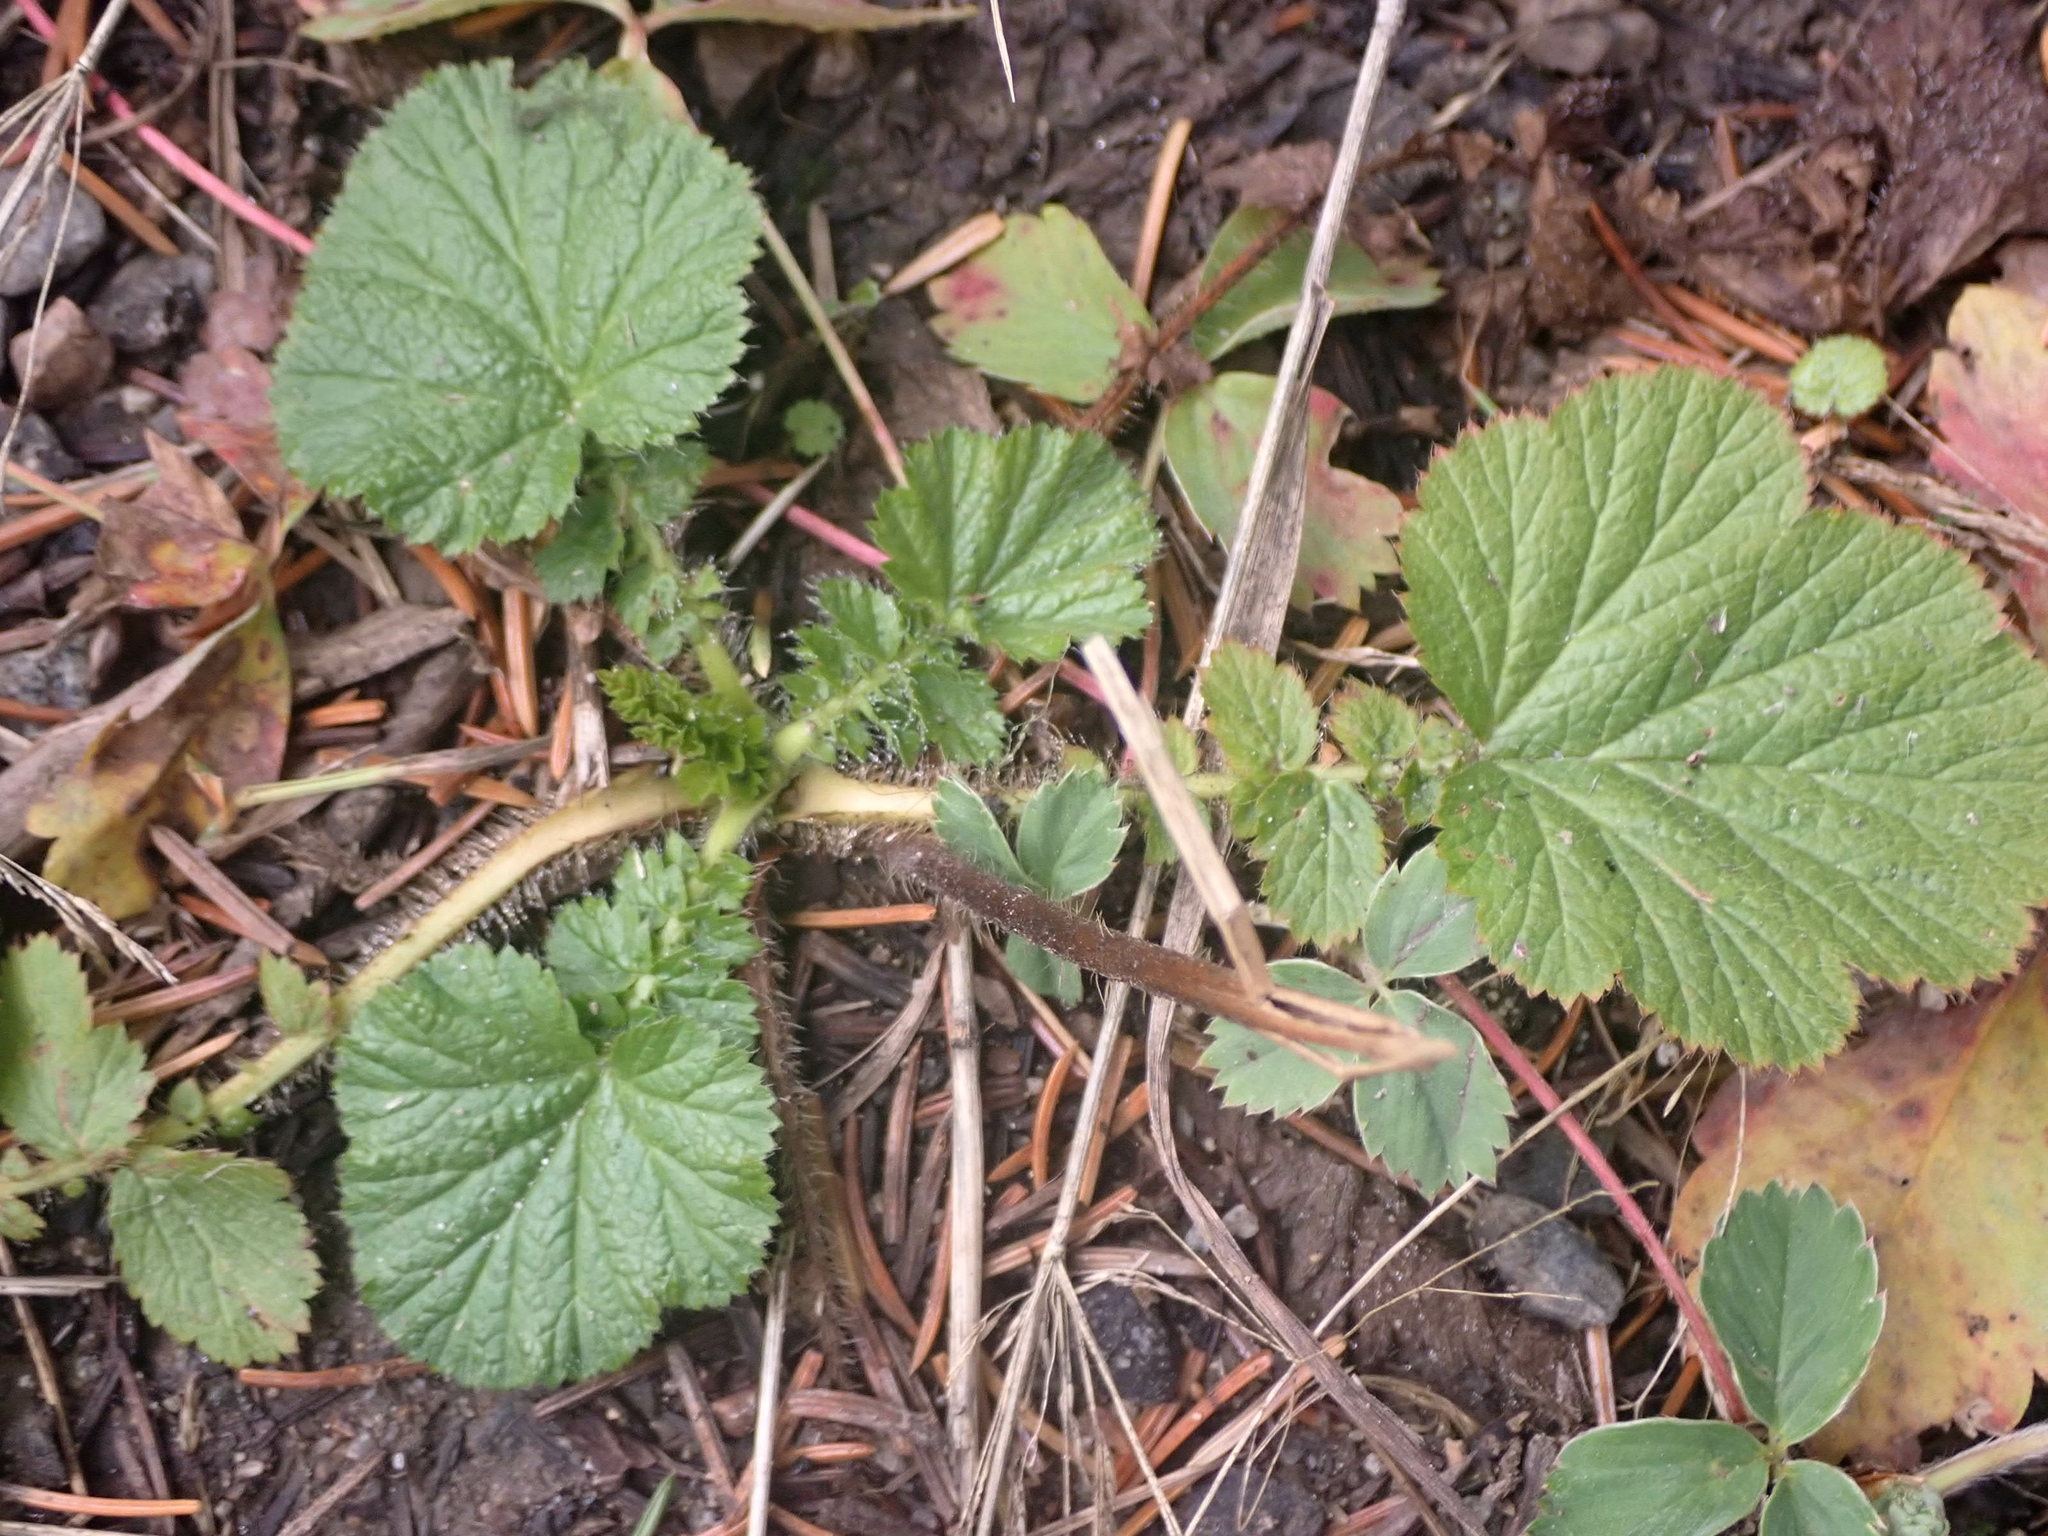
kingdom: Plantae
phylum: Tracheophyta
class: Magnoliopsida
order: Rosales
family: Rosaceae
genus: Geum
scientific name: Geum macrophyllum
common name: Large-leaved avens
